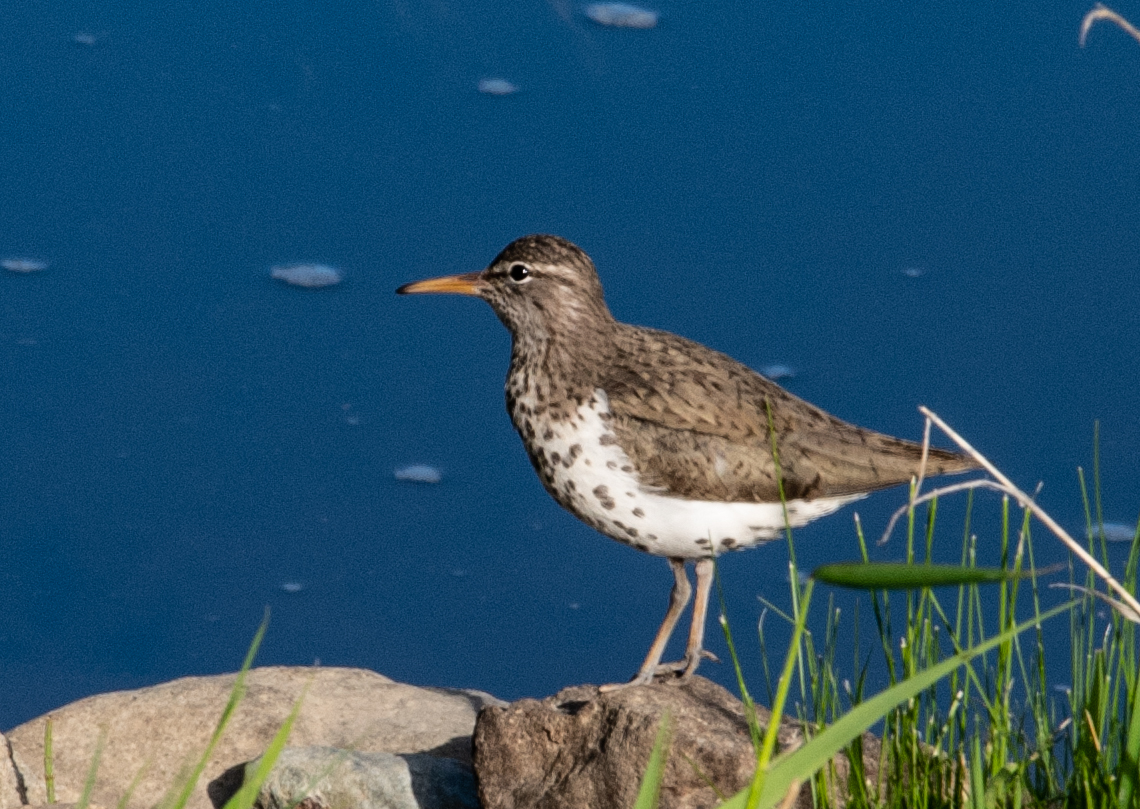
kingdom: Animalia
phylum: Chordata
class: Aves
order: Charadriiformes
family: Scolopacidae
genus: Actitis
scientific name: Actitis macularius
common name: Spotted sandpiper
